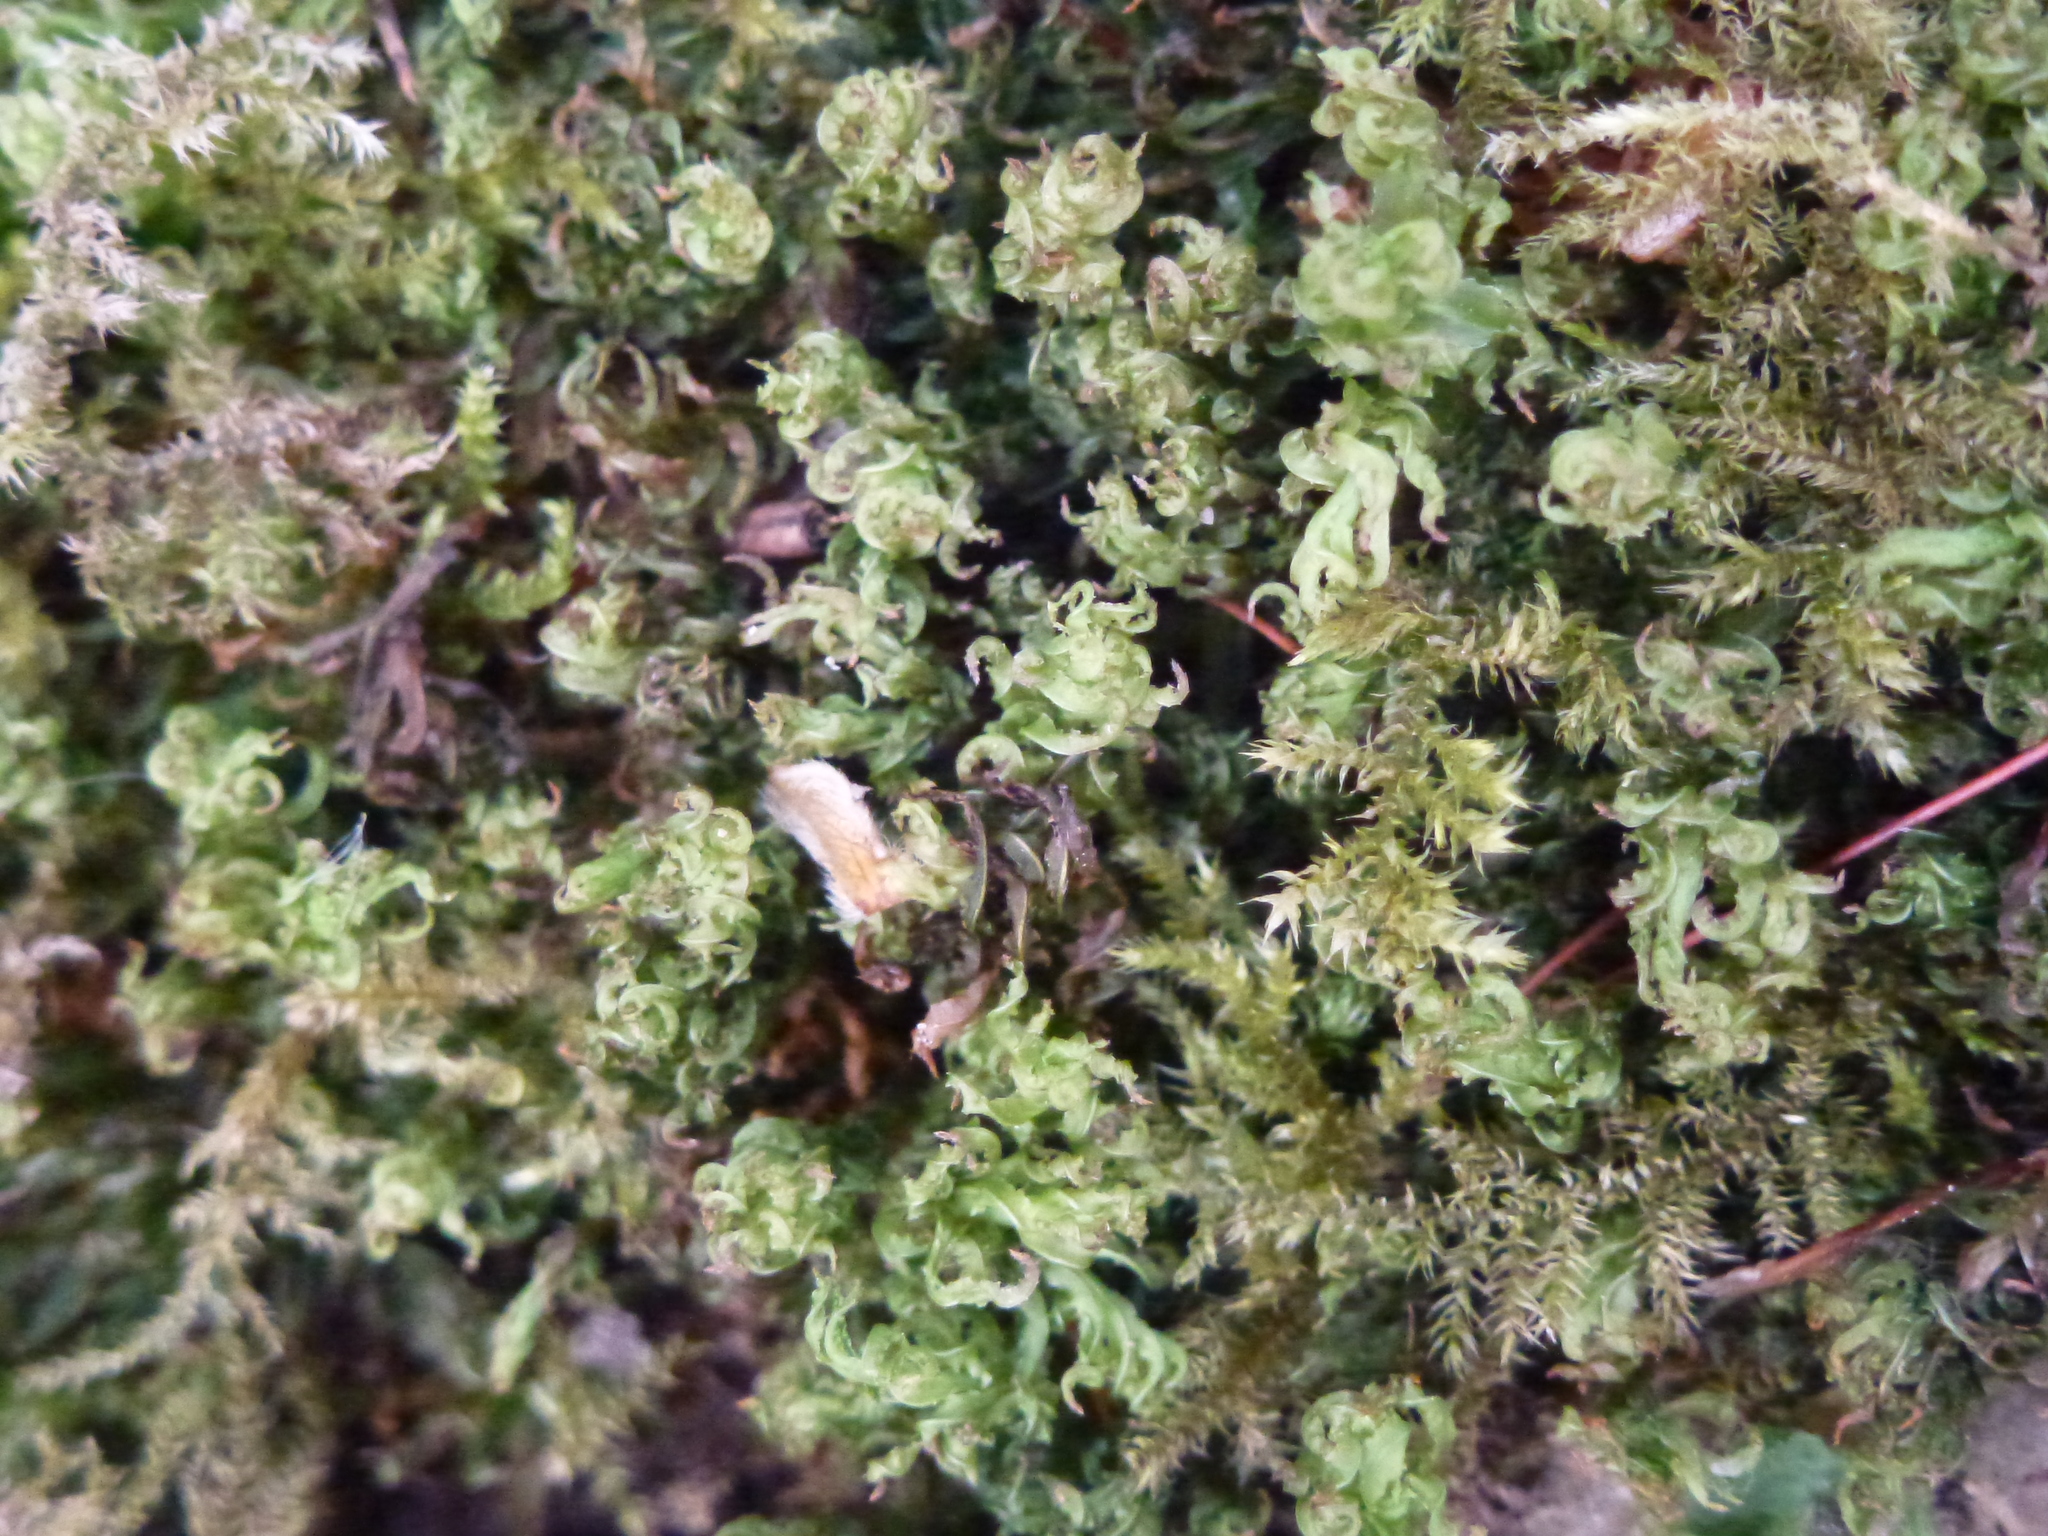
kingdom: Plantae
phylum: Bryophyta
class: Polytrichopsida
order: Polytrichales
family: Polytrichaceae
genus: Atrichum
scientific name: Atrichum undulatum
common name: Common smoothcap
